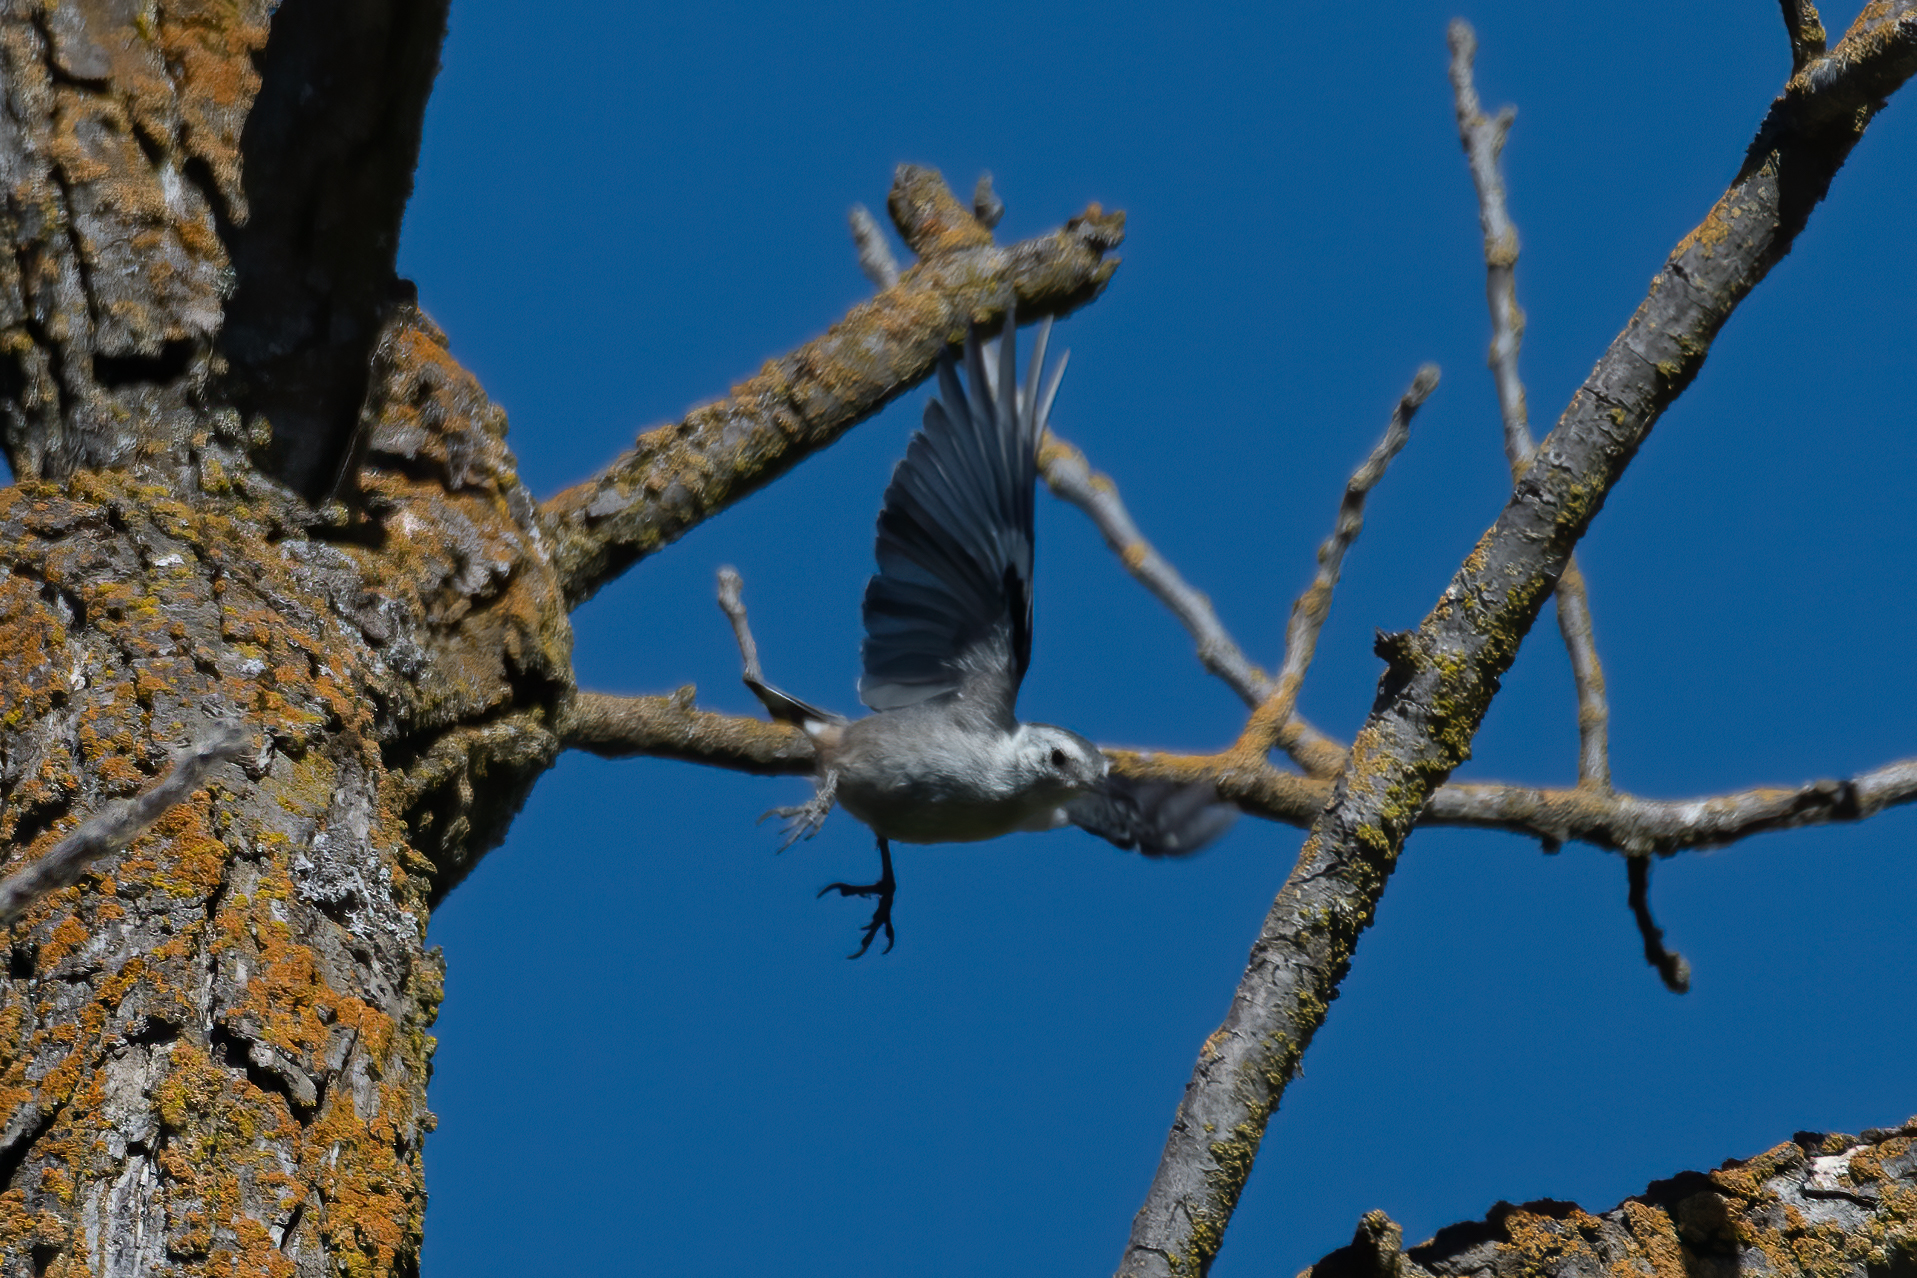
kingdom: Animalia
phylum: Chordata
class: Aves
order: Passeriformes
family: Sittidae
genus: Sitta
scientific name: Sitta carolinensis
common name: White-breasted nuthatch
